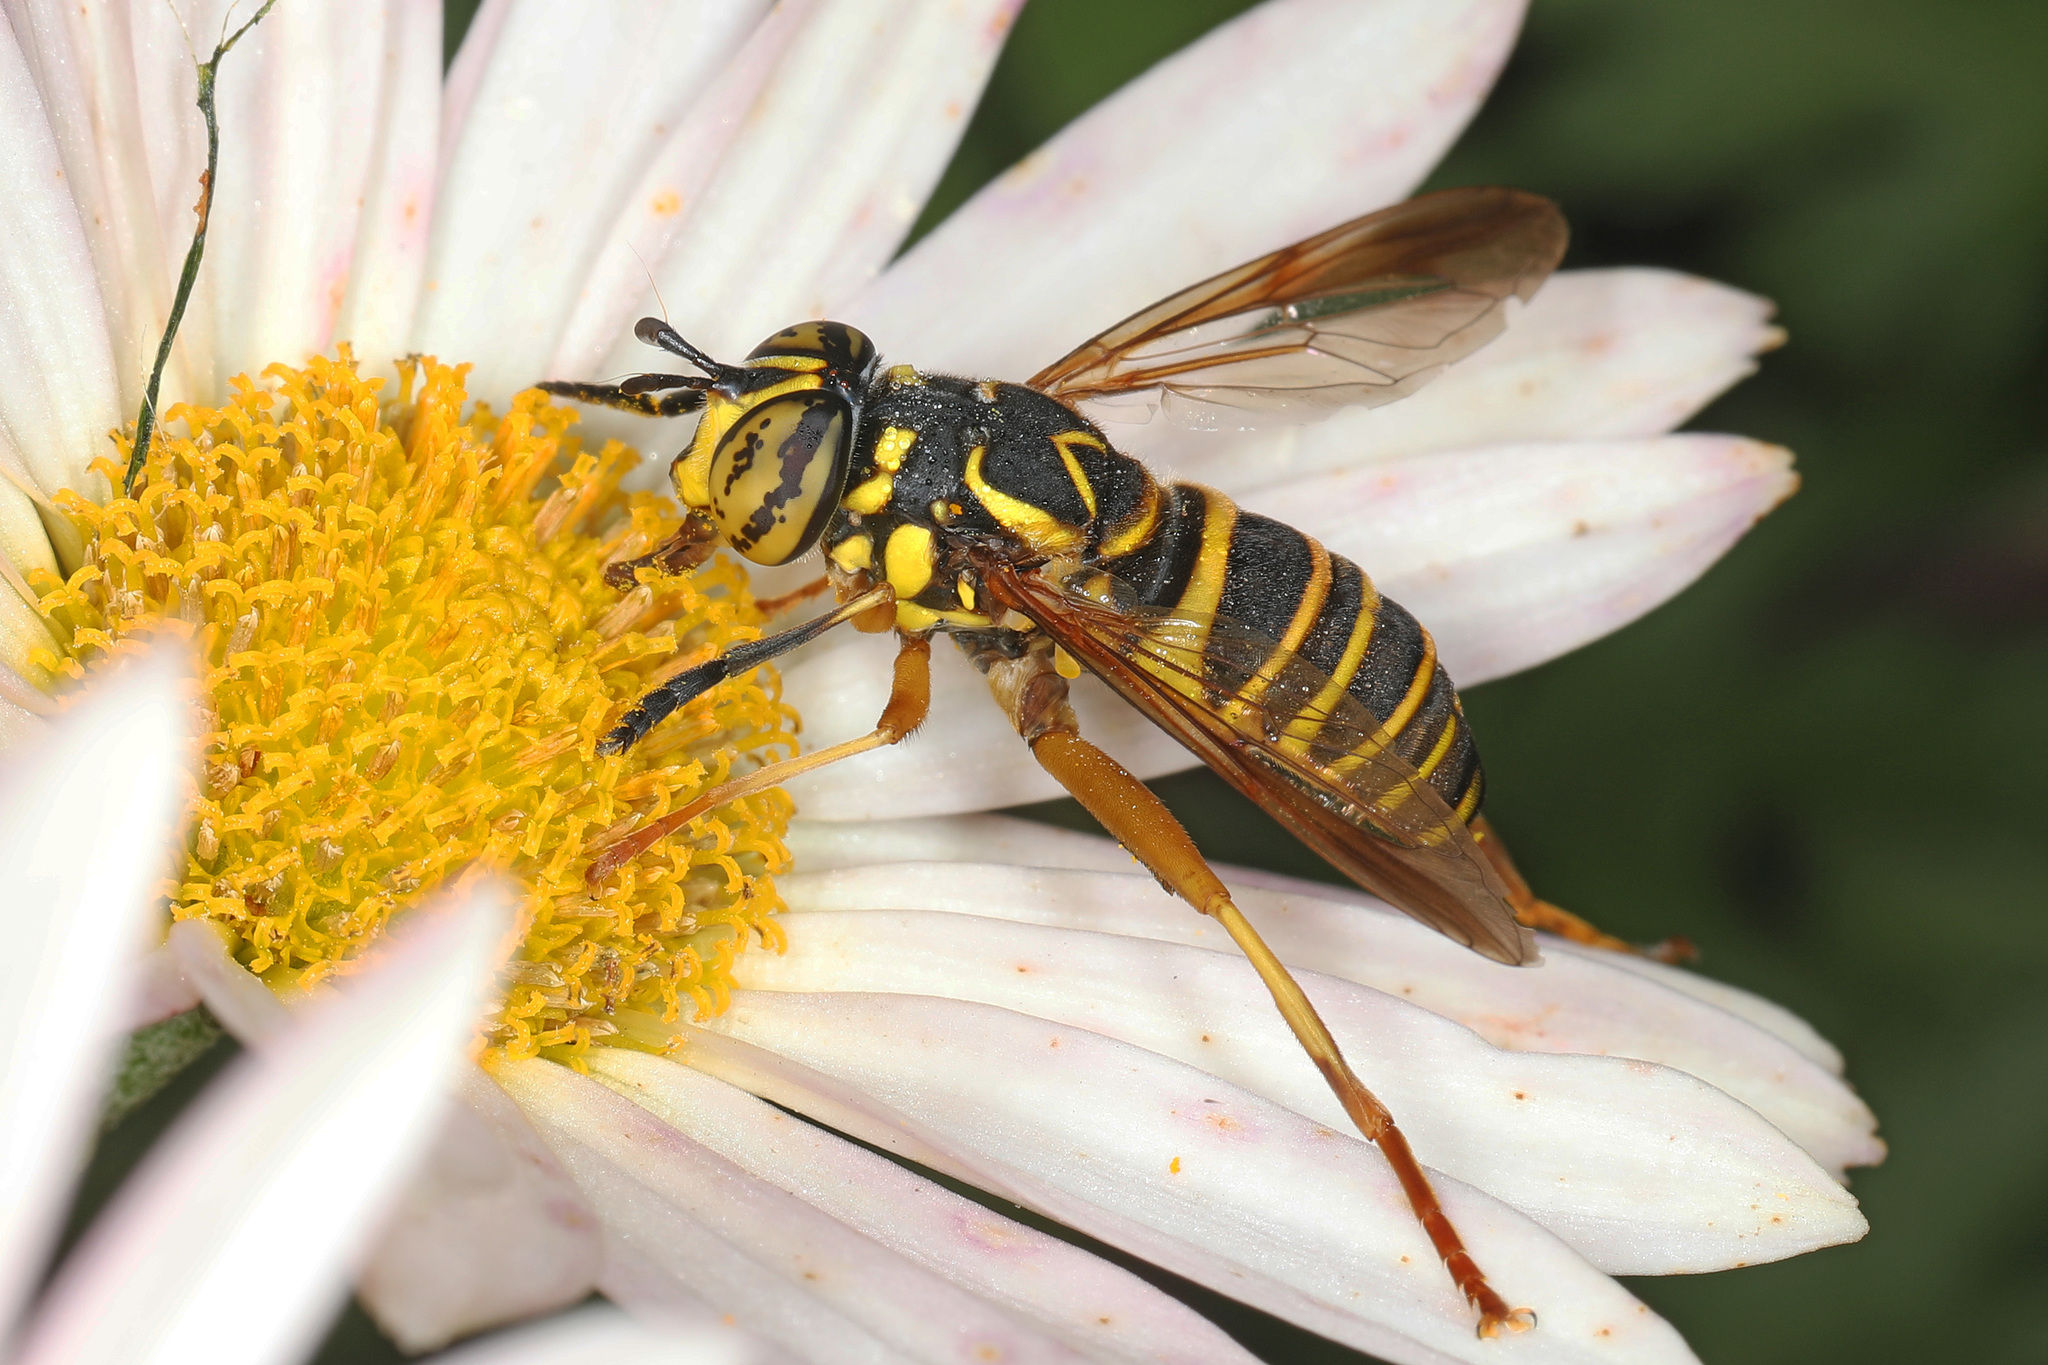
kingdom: Animalia
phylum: Arthropoda
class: Insecta
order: Diptera
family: Syrphidae
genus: Spilomyia
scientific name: Spilomyia longicornis
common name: Eastern hornet fly
